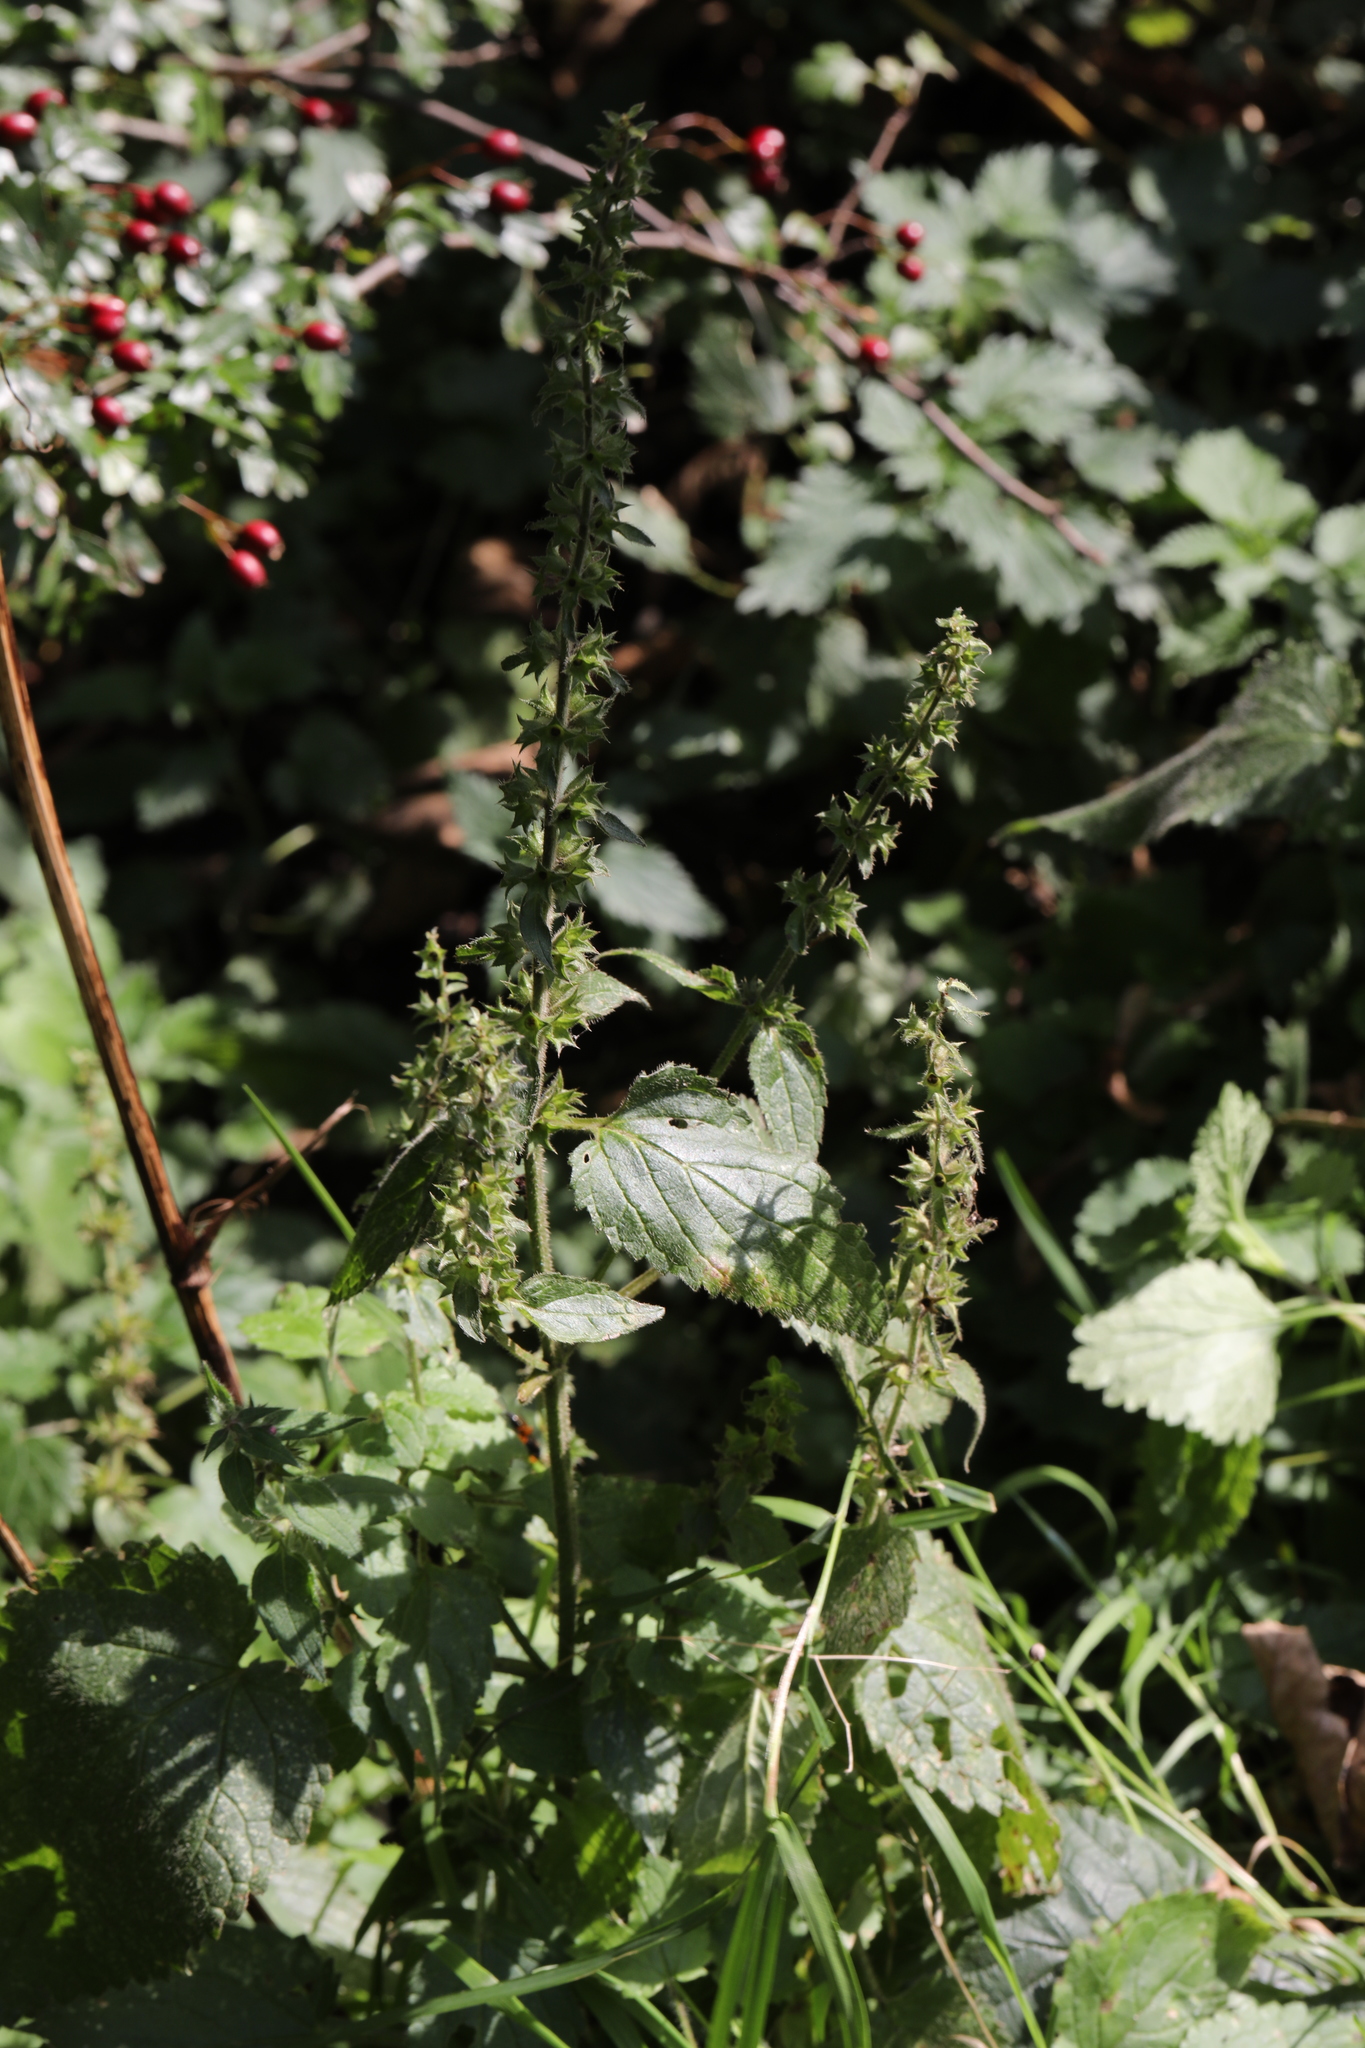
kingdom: Plantae
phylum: Tracheophyta
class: Magnoliopsida
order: Lamiales
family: Lamiaceae
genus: Stachys
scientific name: Stachys sylvatica
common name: Hedge woundwort
